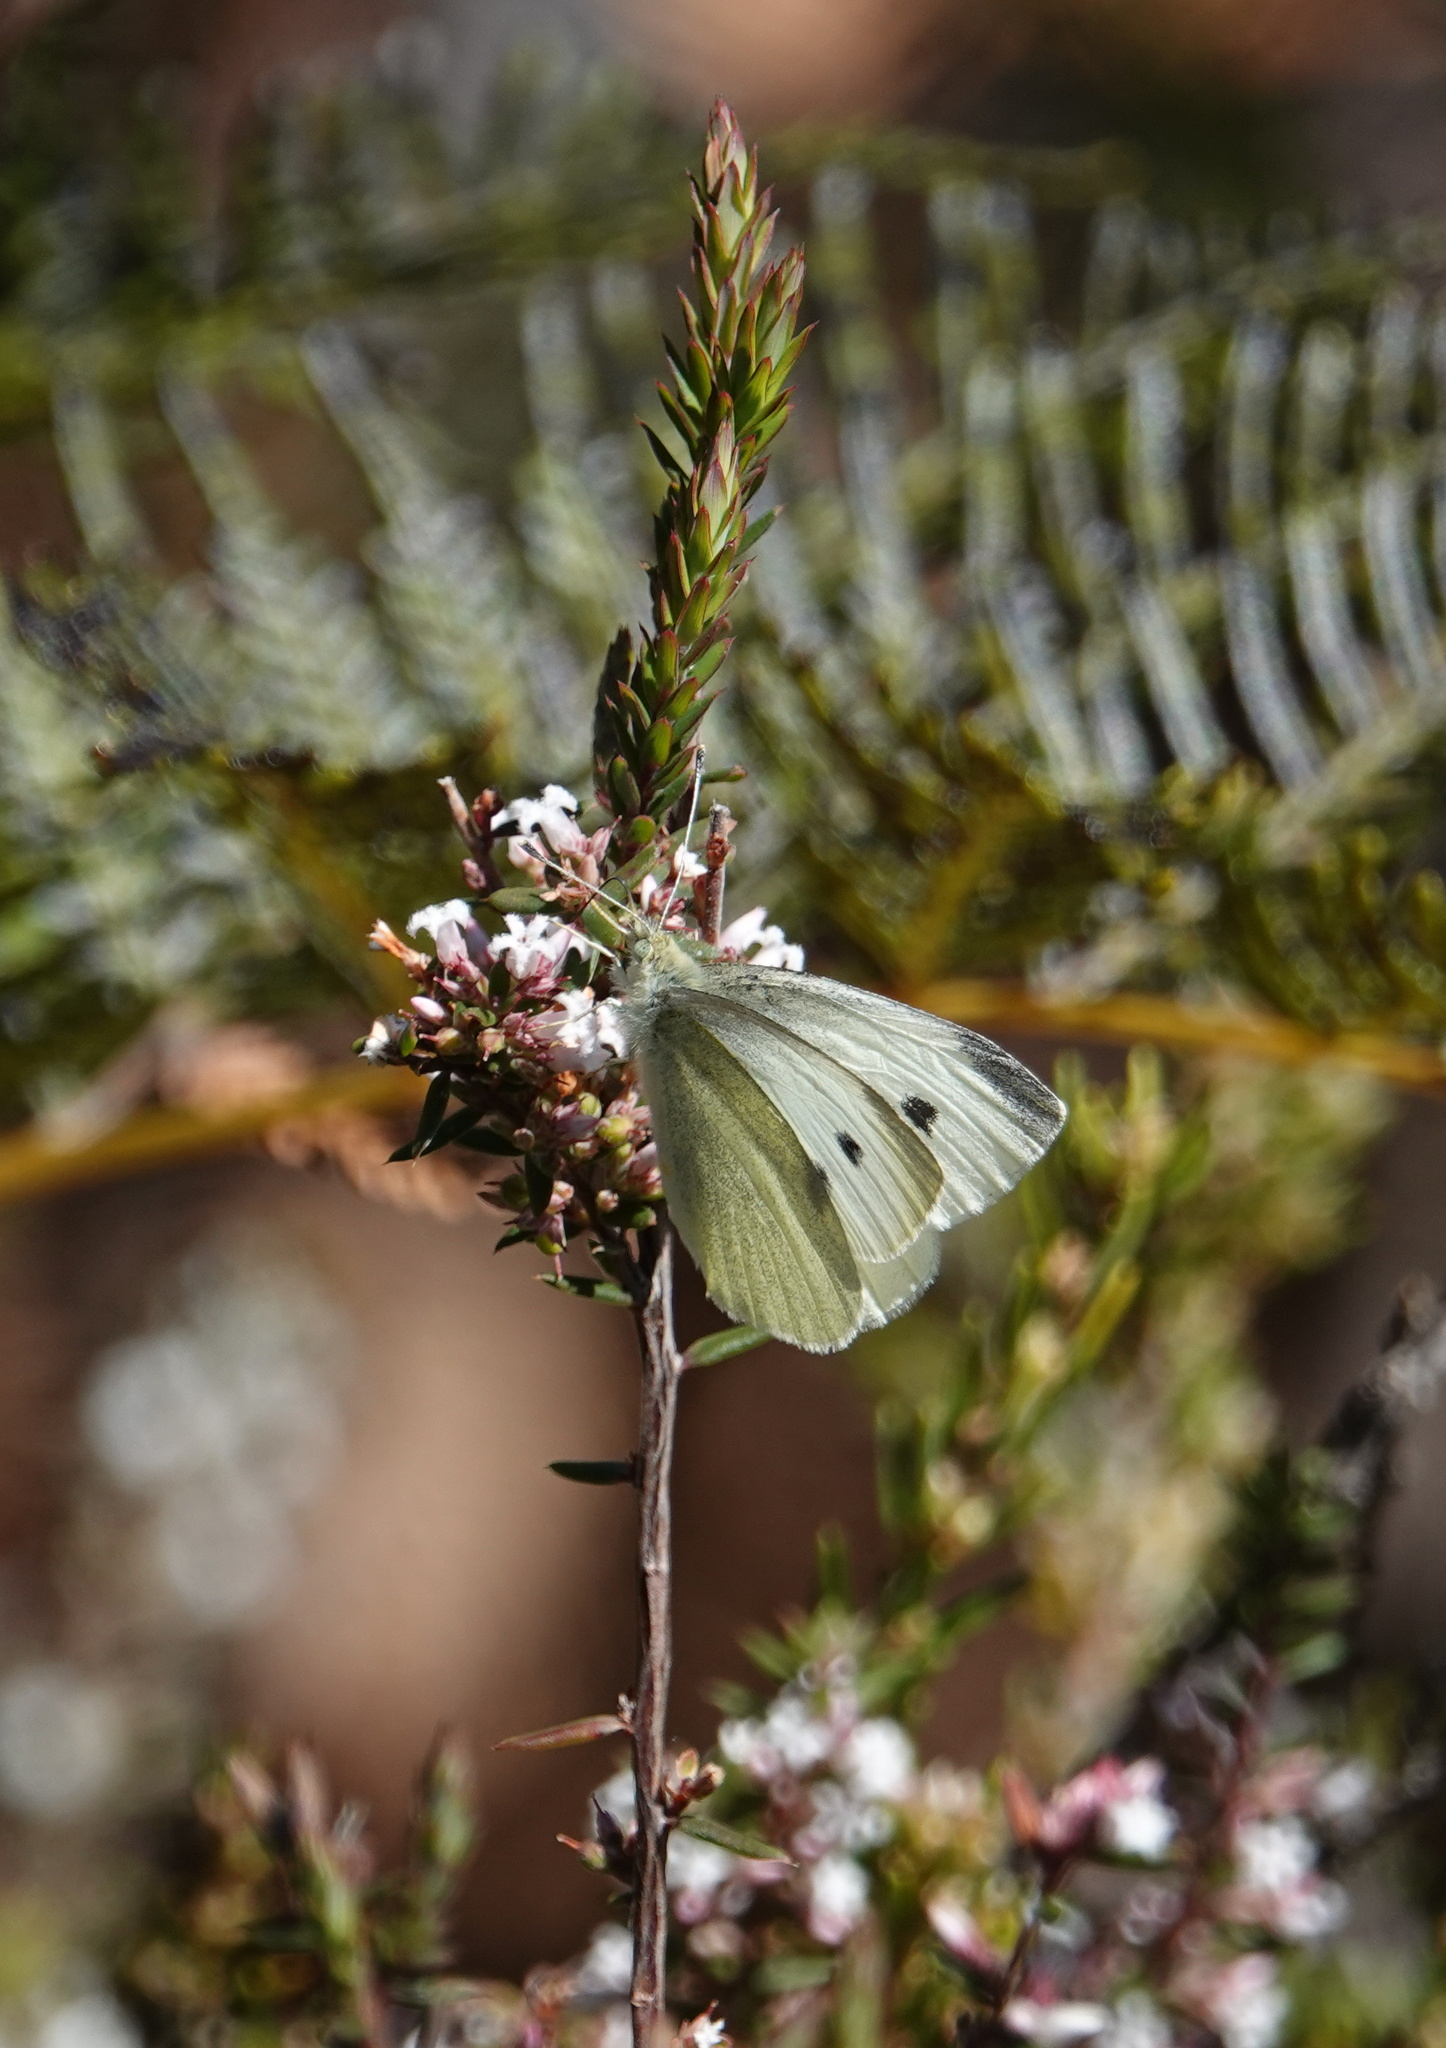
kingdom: Animalia
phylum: Arthropoda
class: Insecta
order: Lepidoptera
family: Pieridae
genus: Pieris
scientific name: Pieris rapae
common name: Small white
